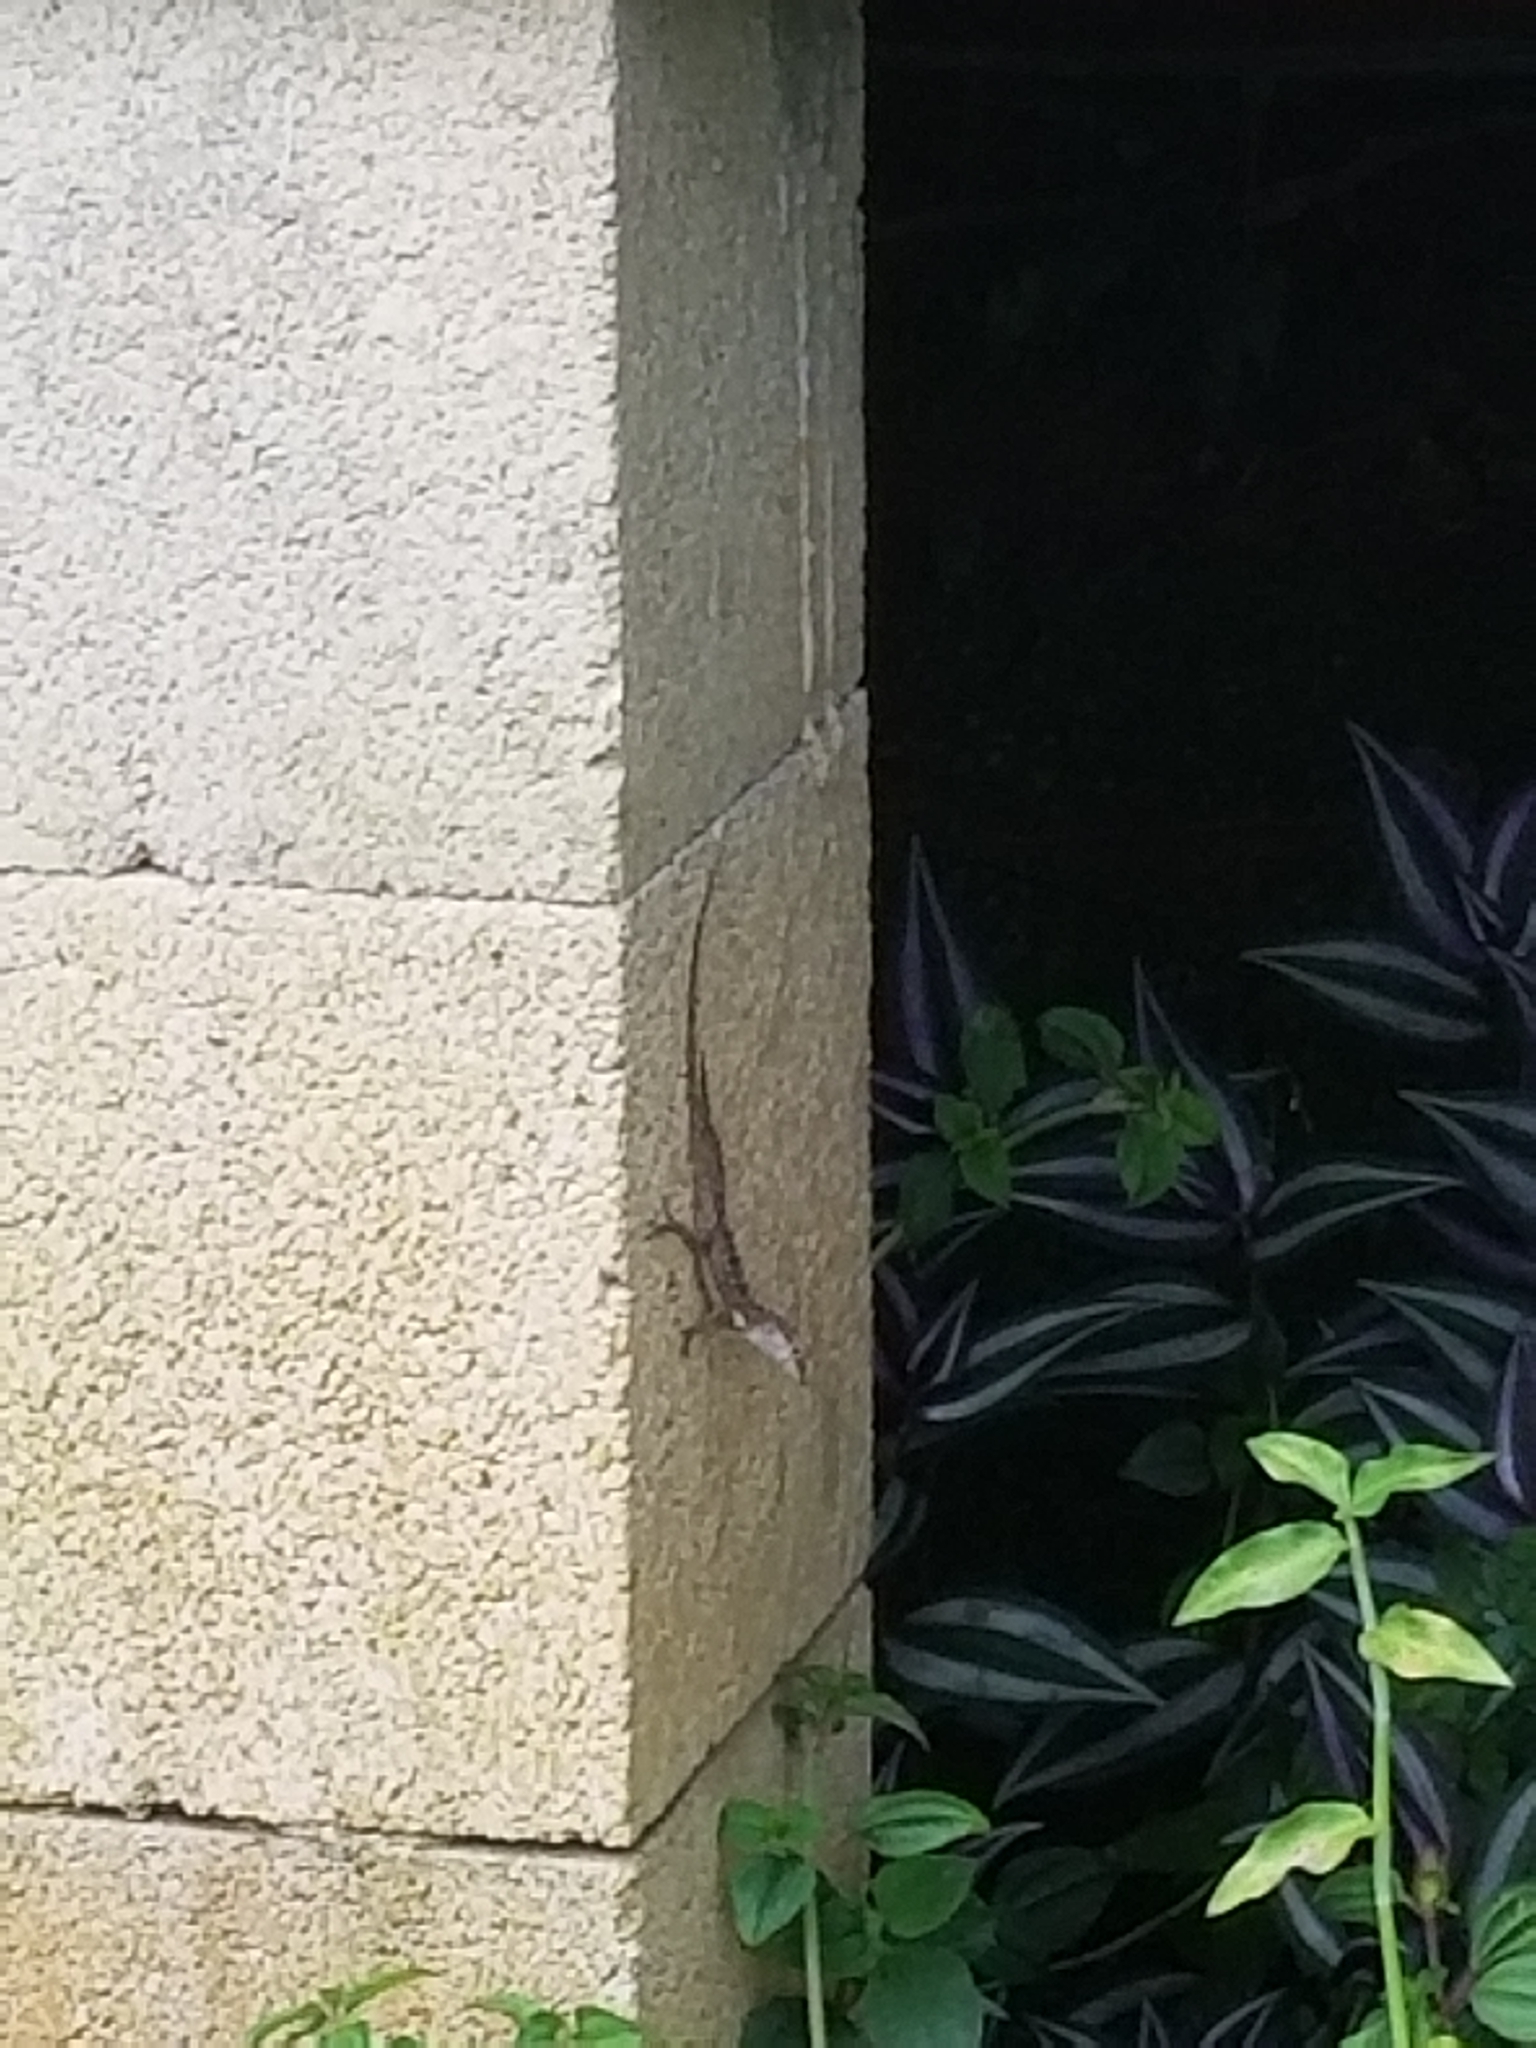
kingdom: Animalia
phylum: Chordata
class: Squamata
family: Dactyloidae
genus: Anolis
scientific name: Anolis cristatellus
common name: Crested anole
